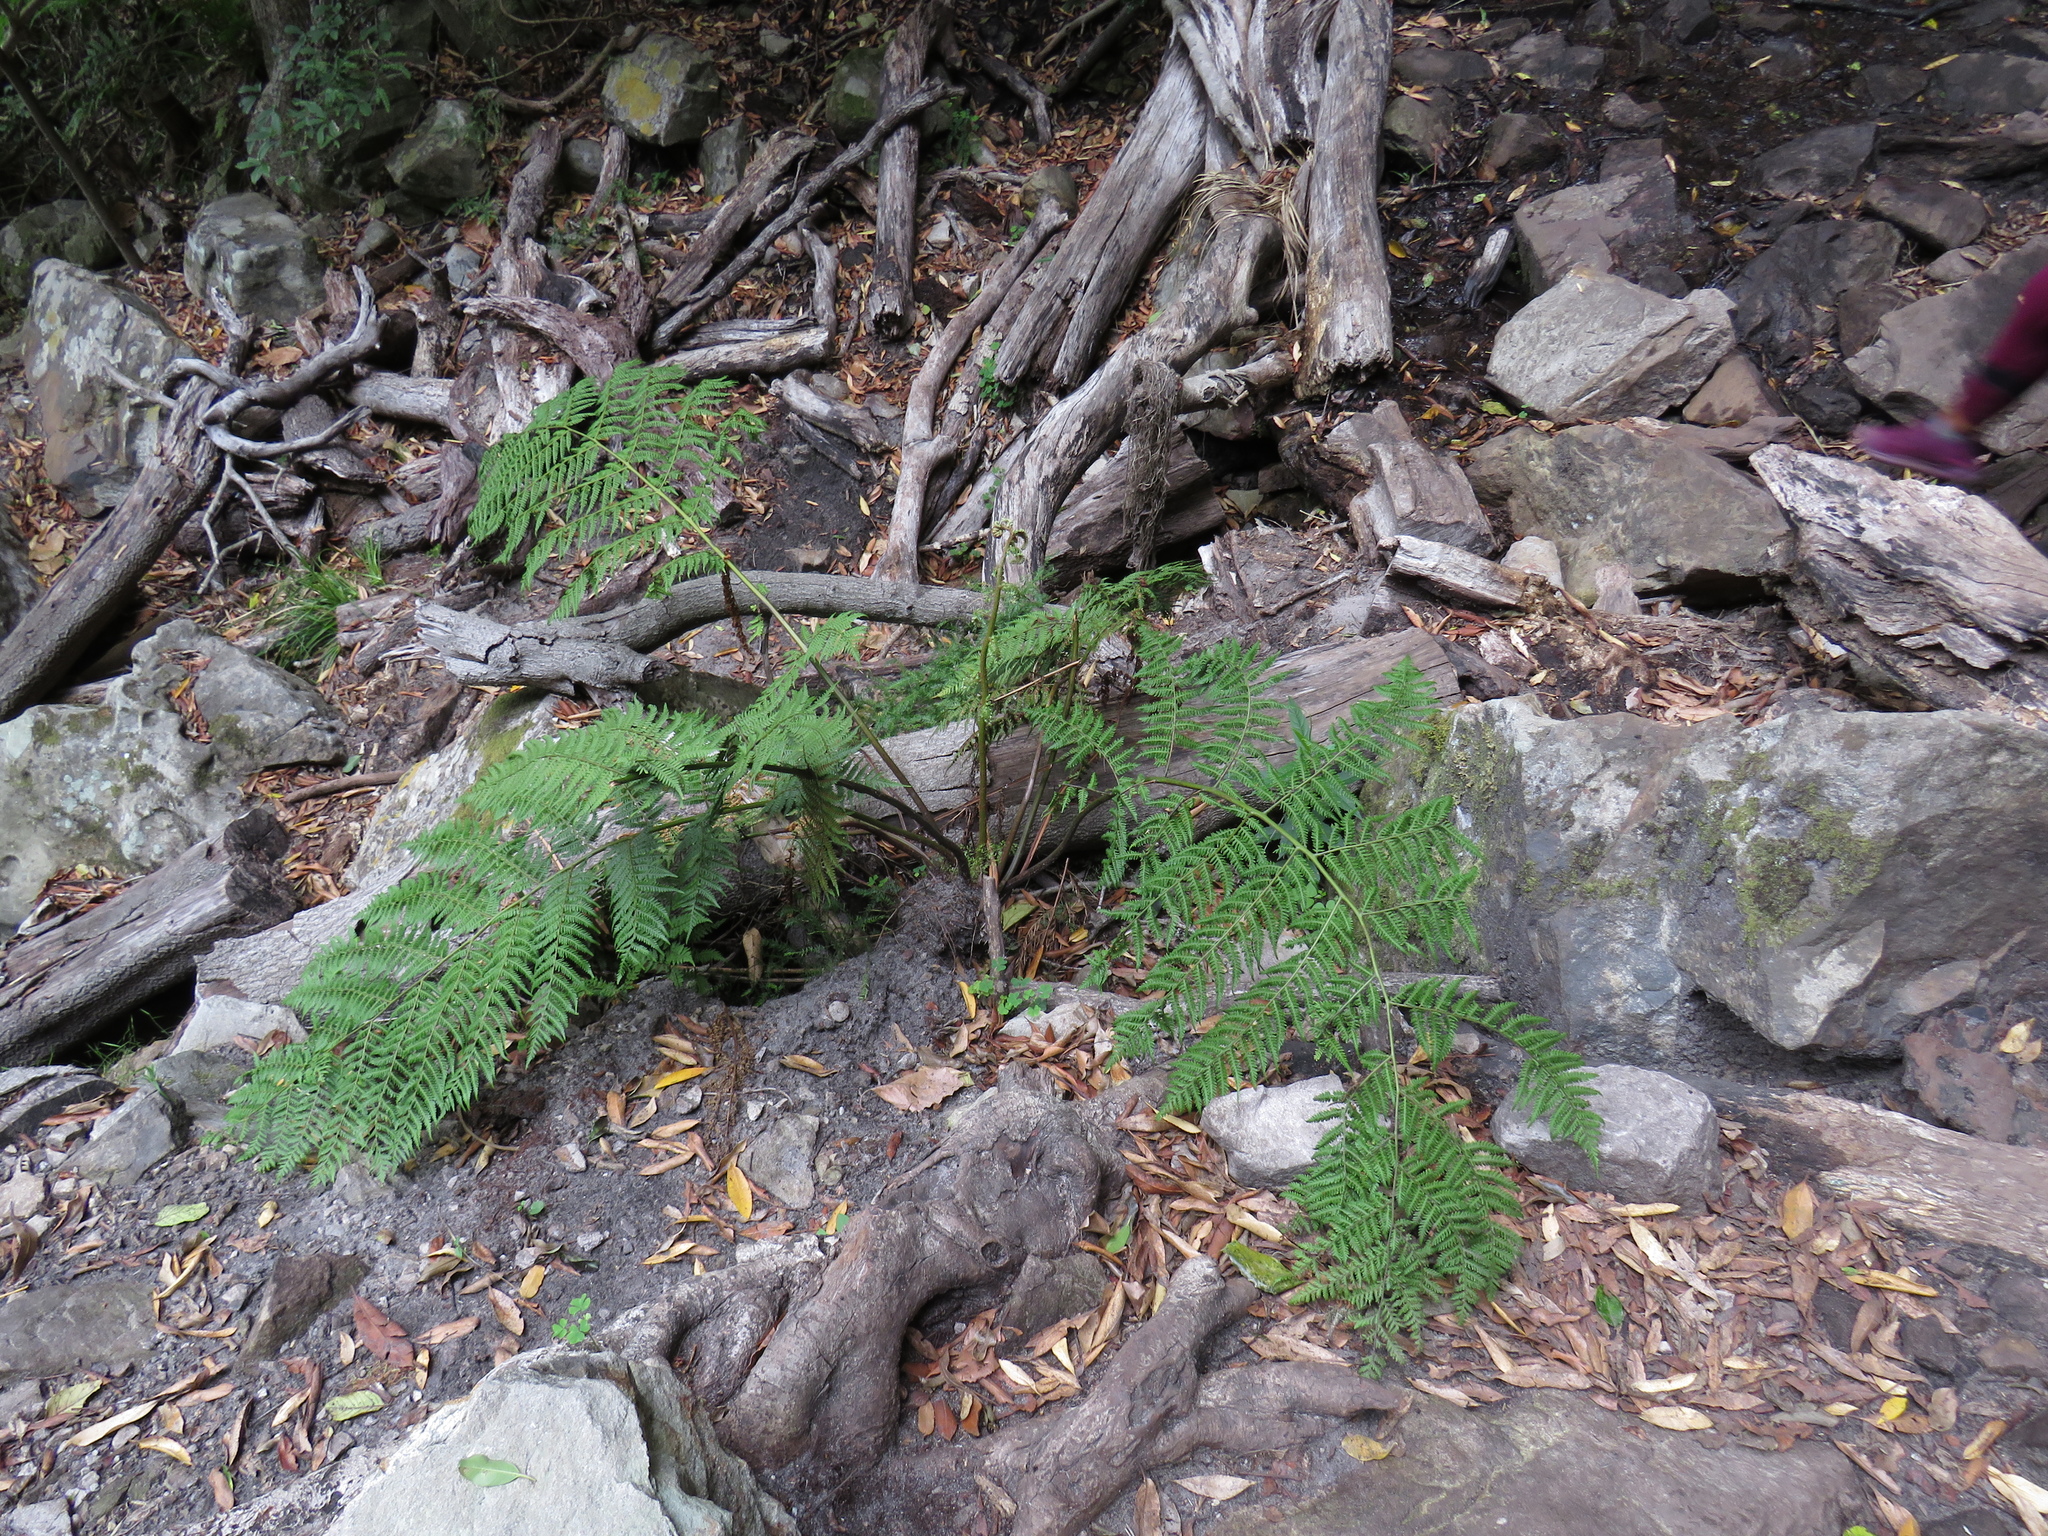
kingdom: Plantae
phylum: Tracheophyta
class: Polypodiopsida
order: Cyatheales
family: Cyatheaceae
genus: Gymnosphaera
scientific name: Gymnosphaera capensis
